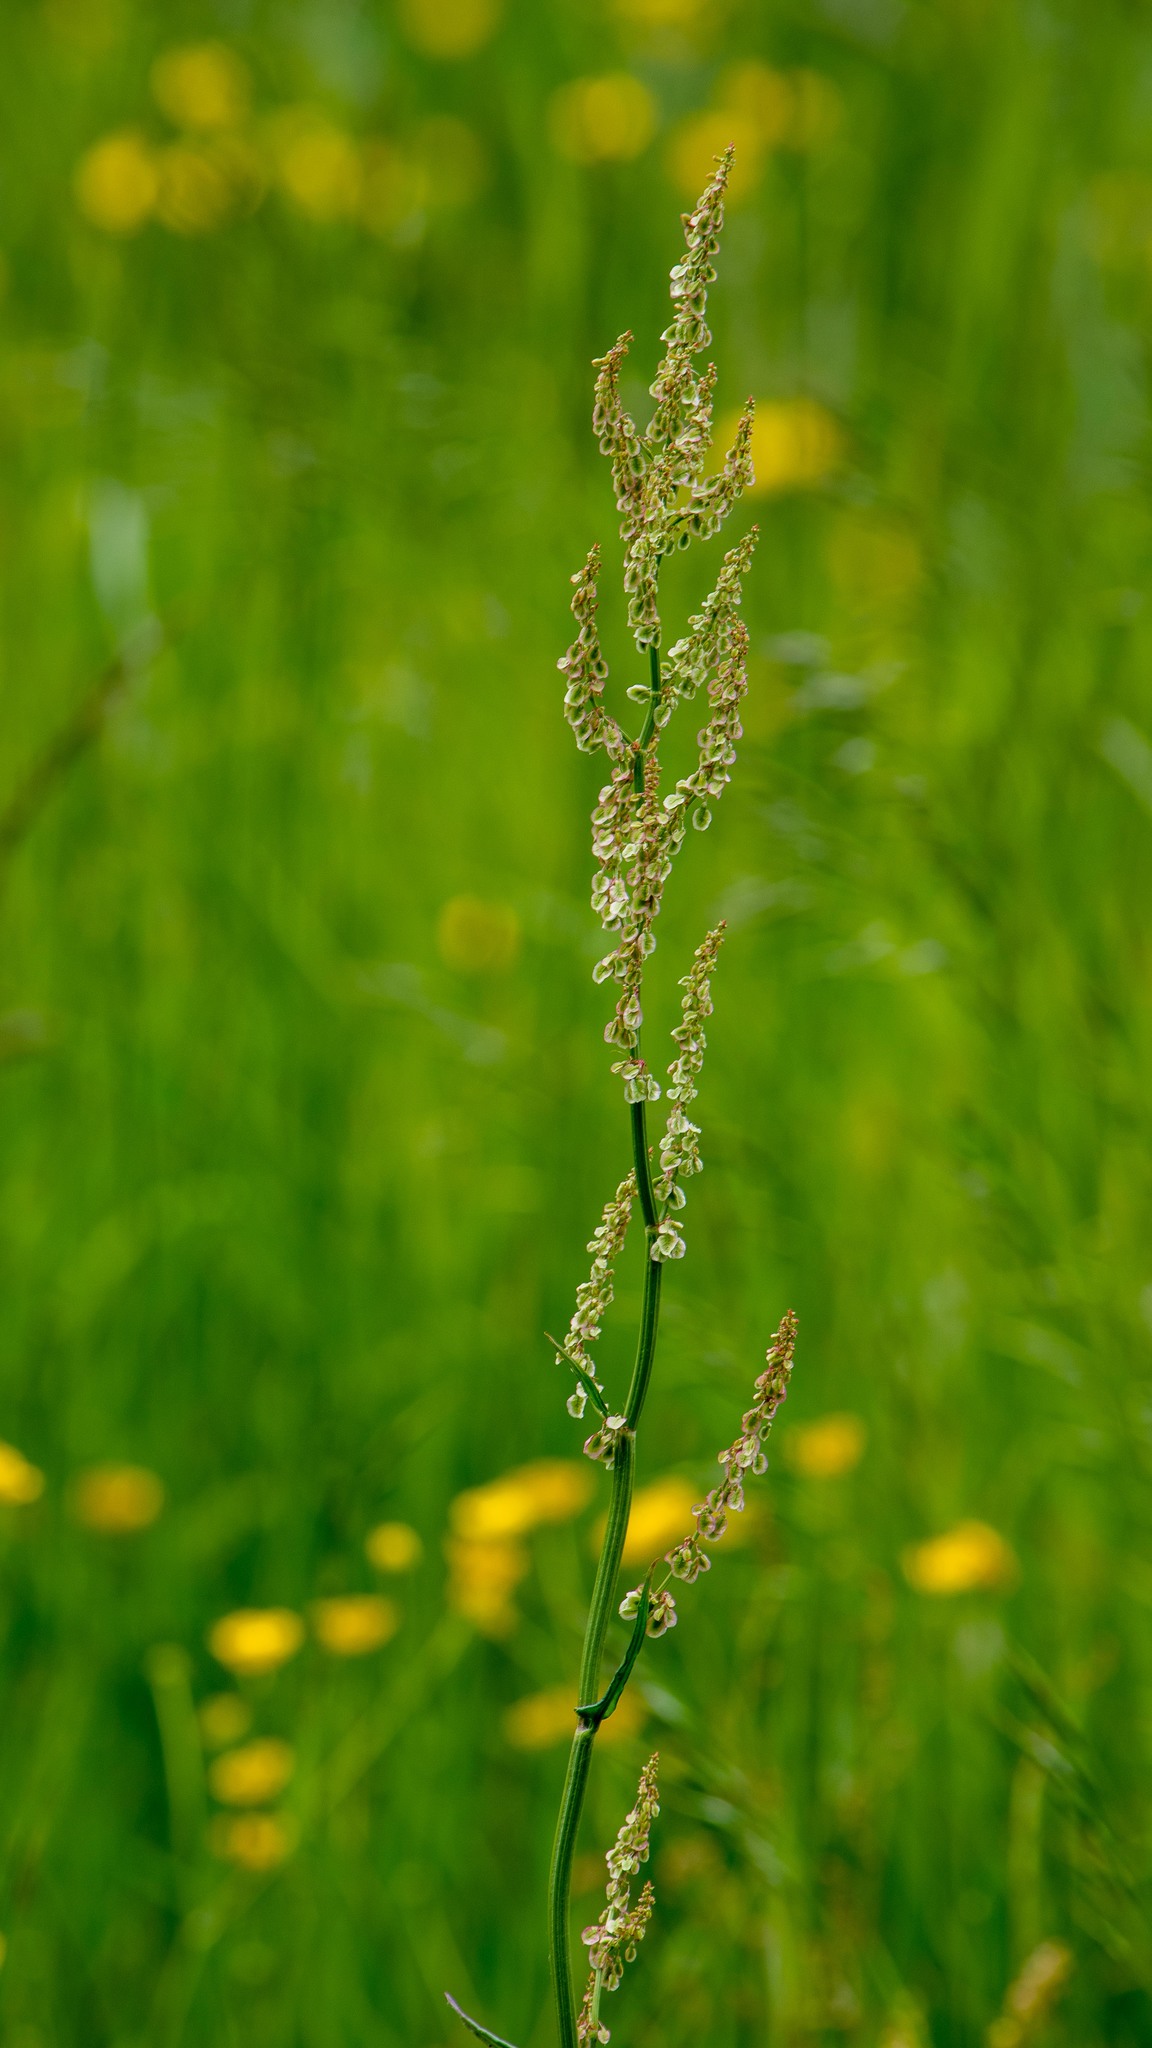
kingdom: Plantae
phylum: Tracheophyta
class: Magnoliopsida
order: Caryophyllales
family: Polygonaceae
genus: Rumex
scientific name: Rumex acetosa
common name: Garden sorrel
